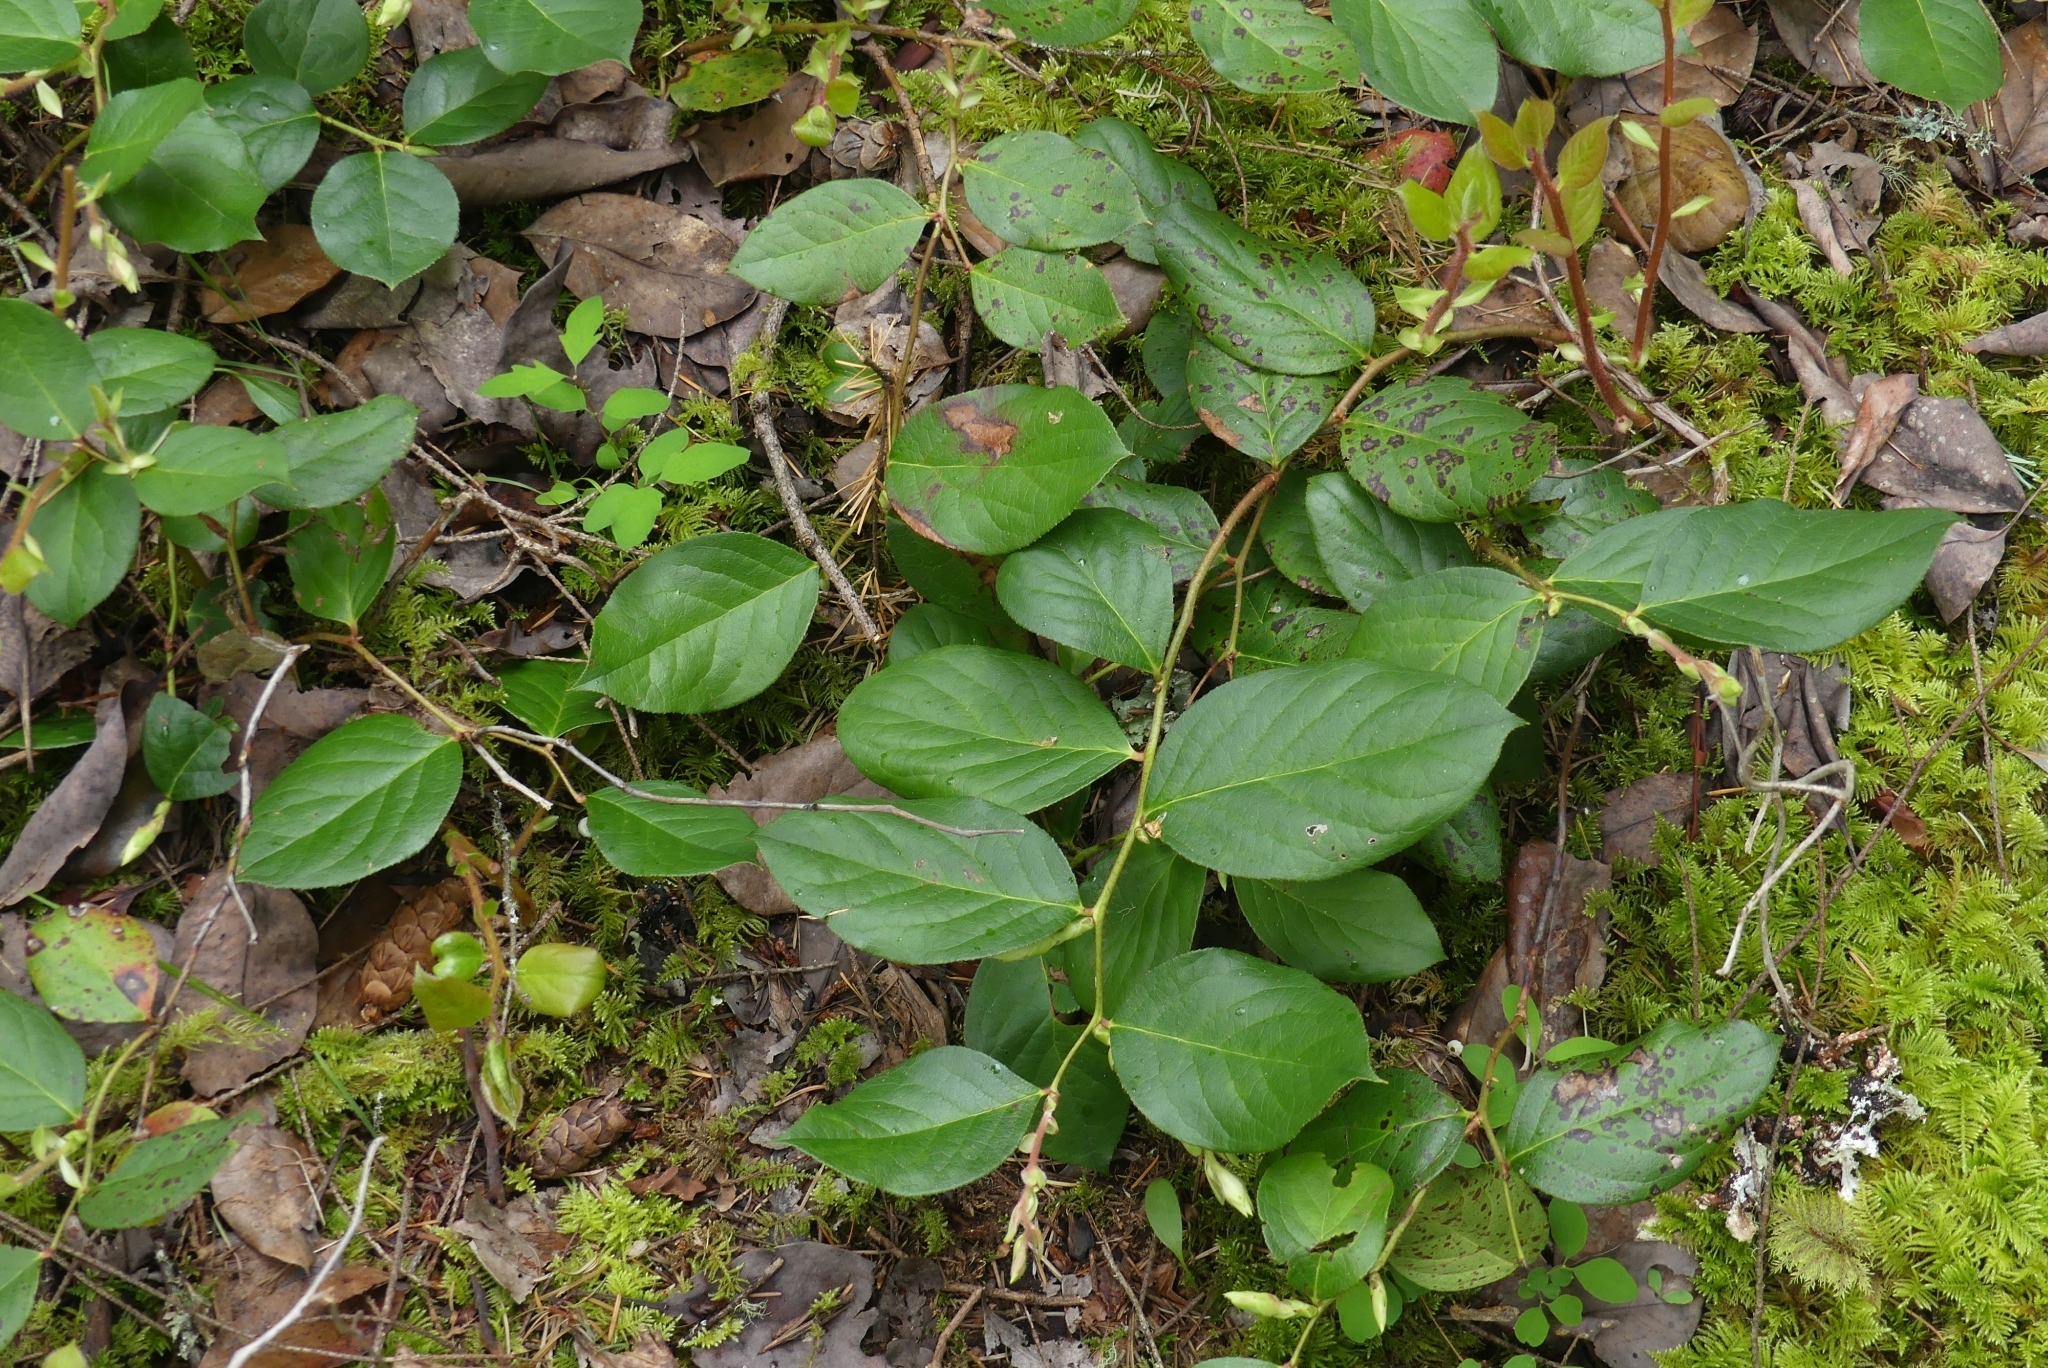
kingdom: Plantae
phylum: Tracheophyta
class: Magnoliopsida
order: Ericales
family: Ericaceae
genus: Gaultheria
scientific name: Gaultheria shallon
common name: Shallon
